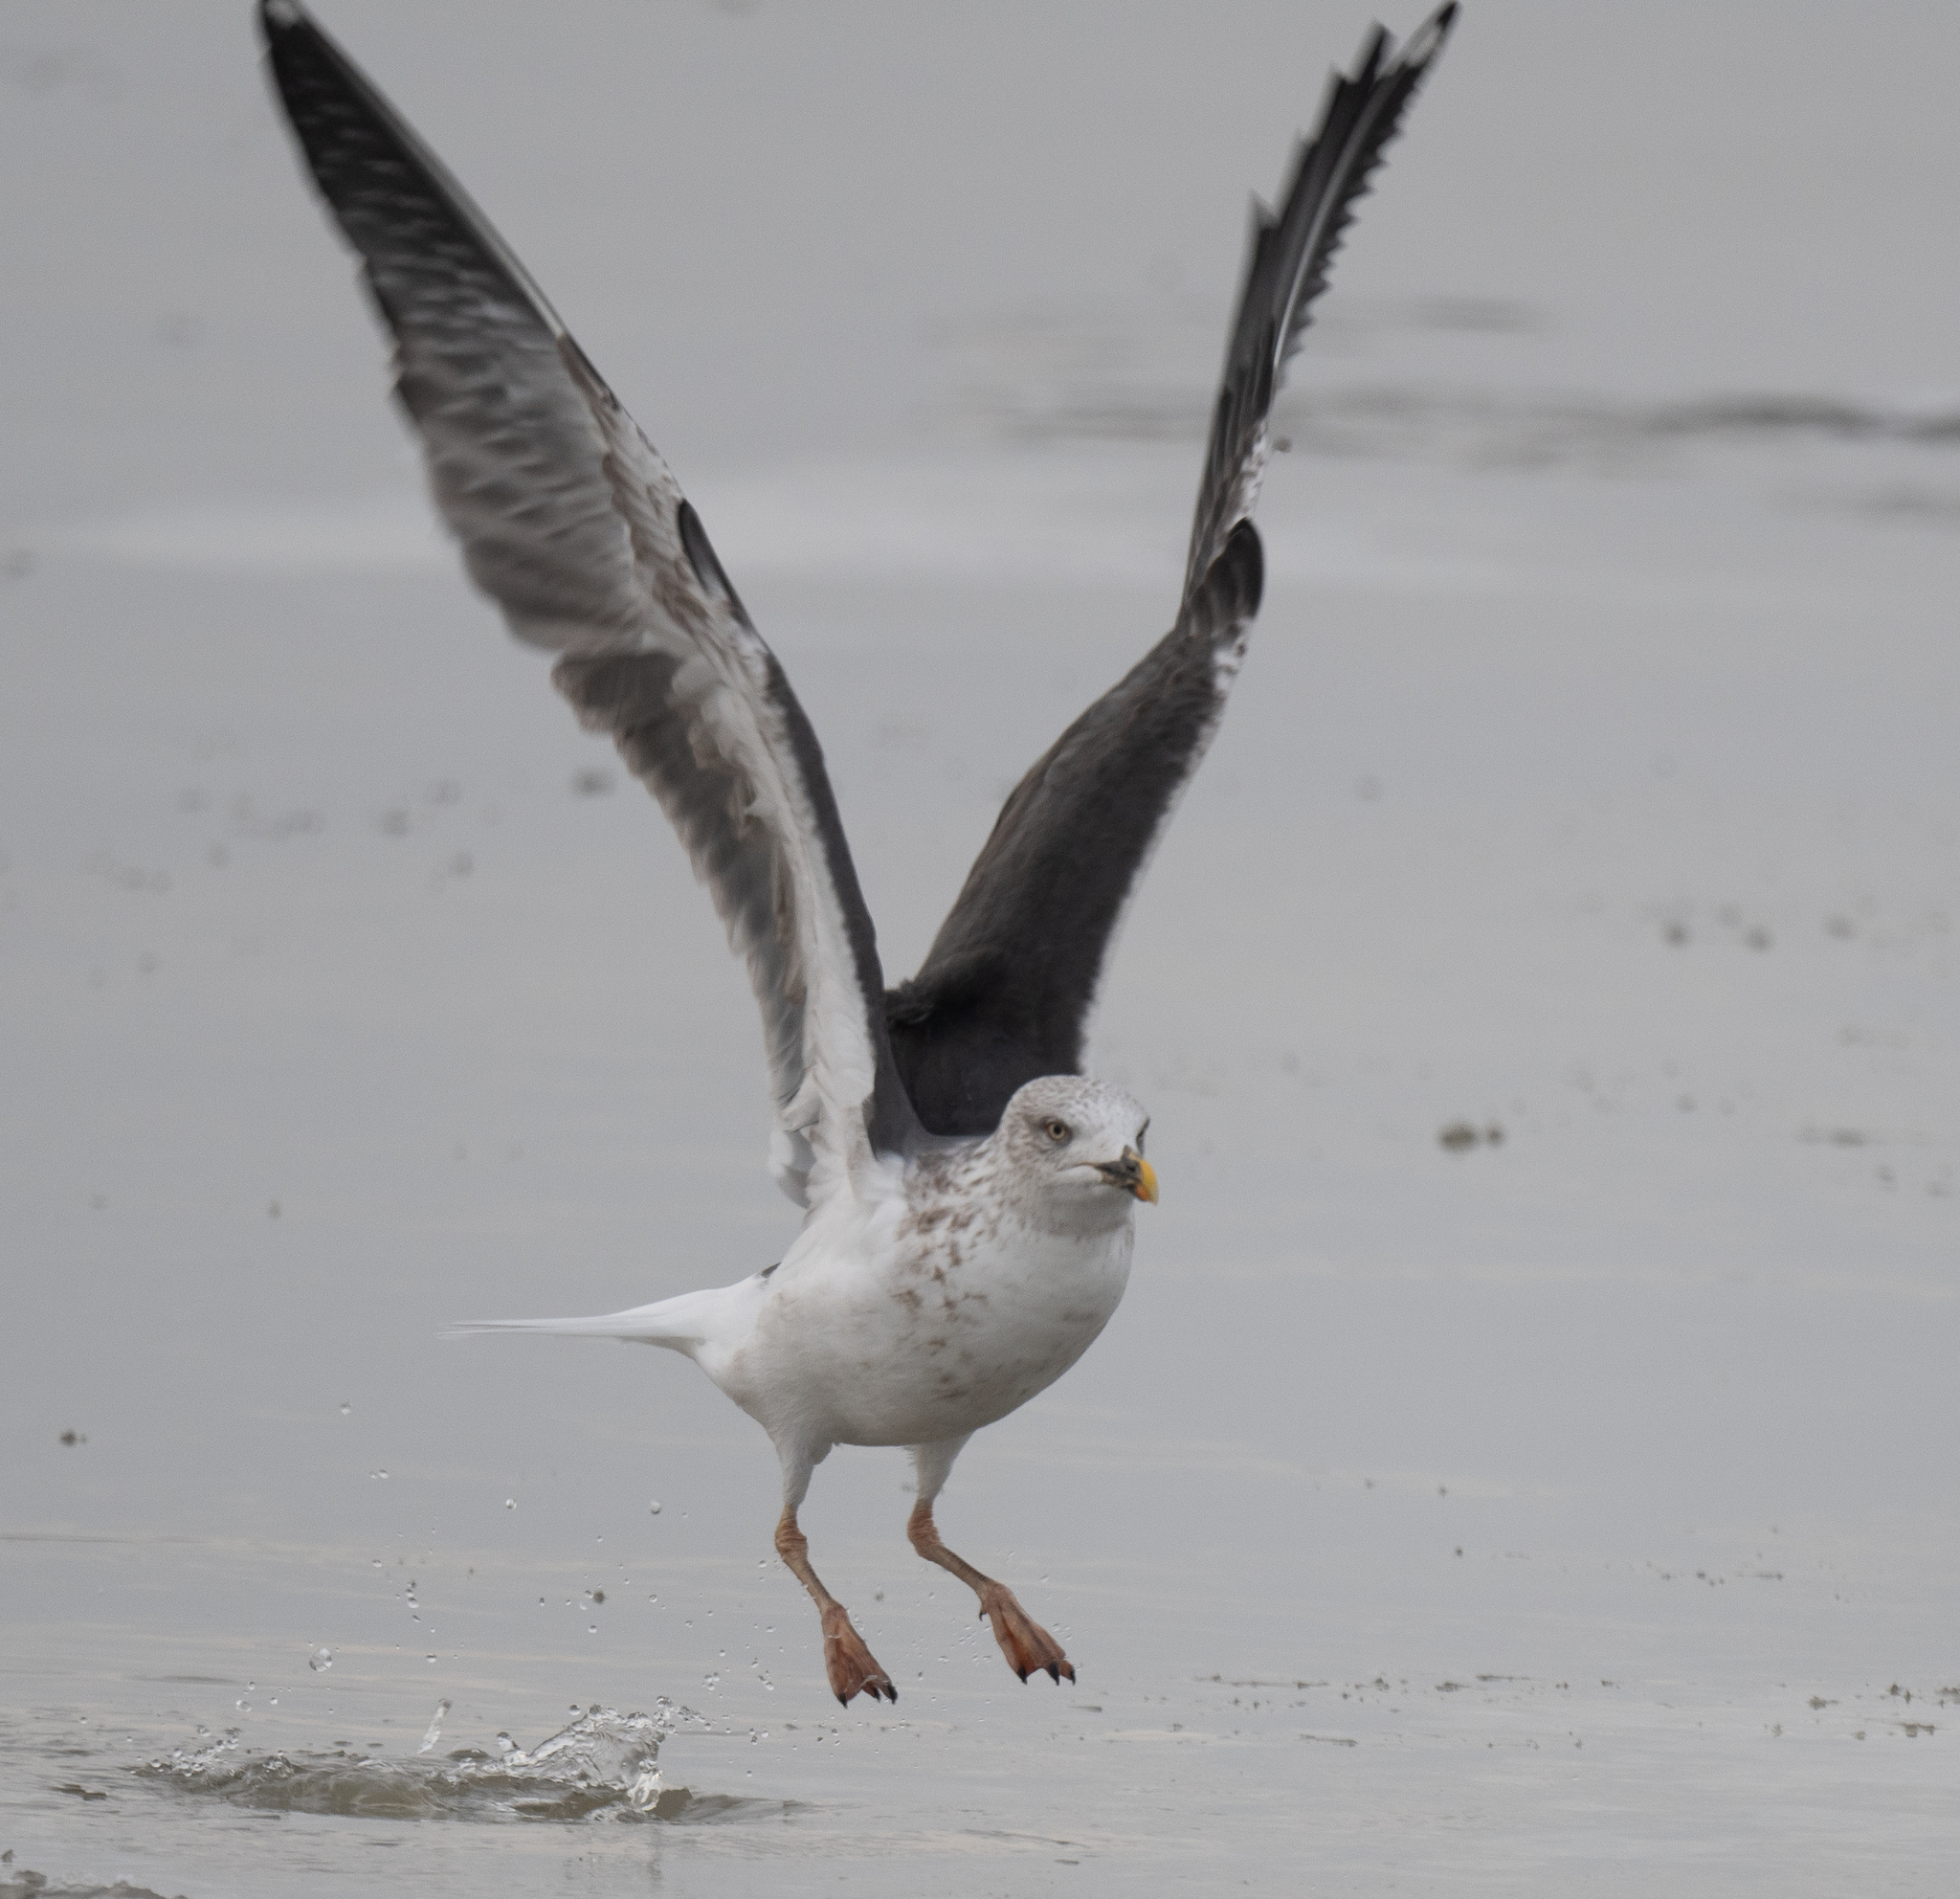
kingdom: Animalia
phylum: Chordata
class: Aves
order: Charadriiformes
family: Laridae
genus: Larus
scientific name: Larus fuscus
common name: Lesser black-backed gull
